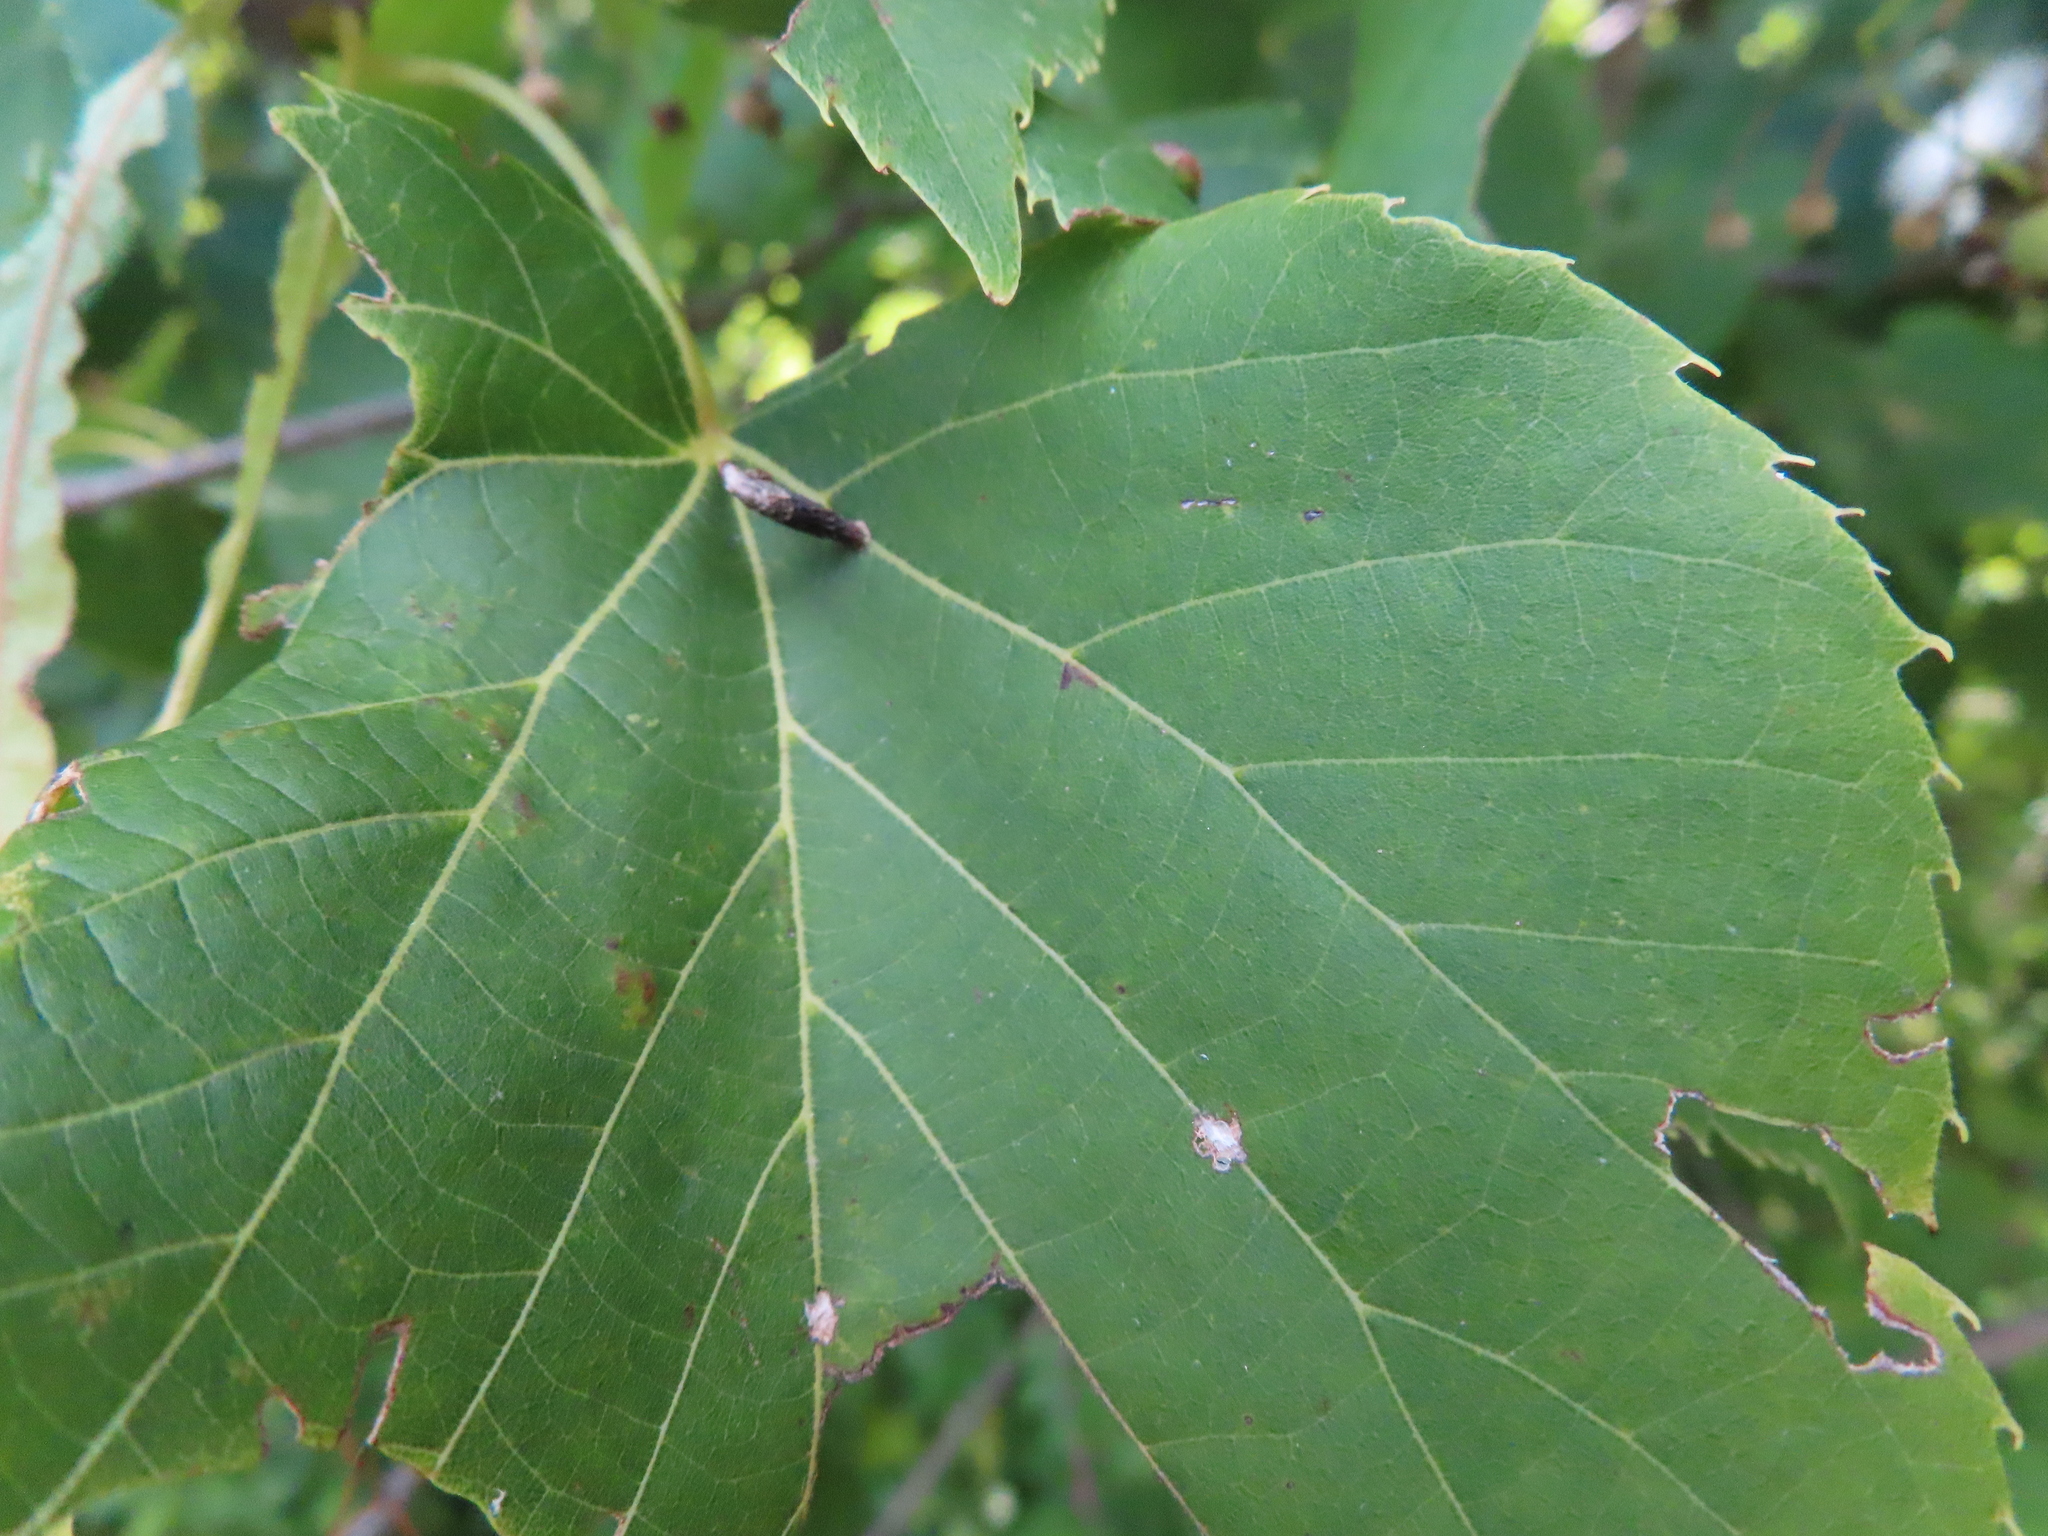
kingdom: Animalia
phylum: Arthropoda
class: Arachnida
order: Trombidiformes
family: Eriophyidae
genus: Eriophyes
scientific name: Eriophyes tiliae
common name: Red nail gall mite
